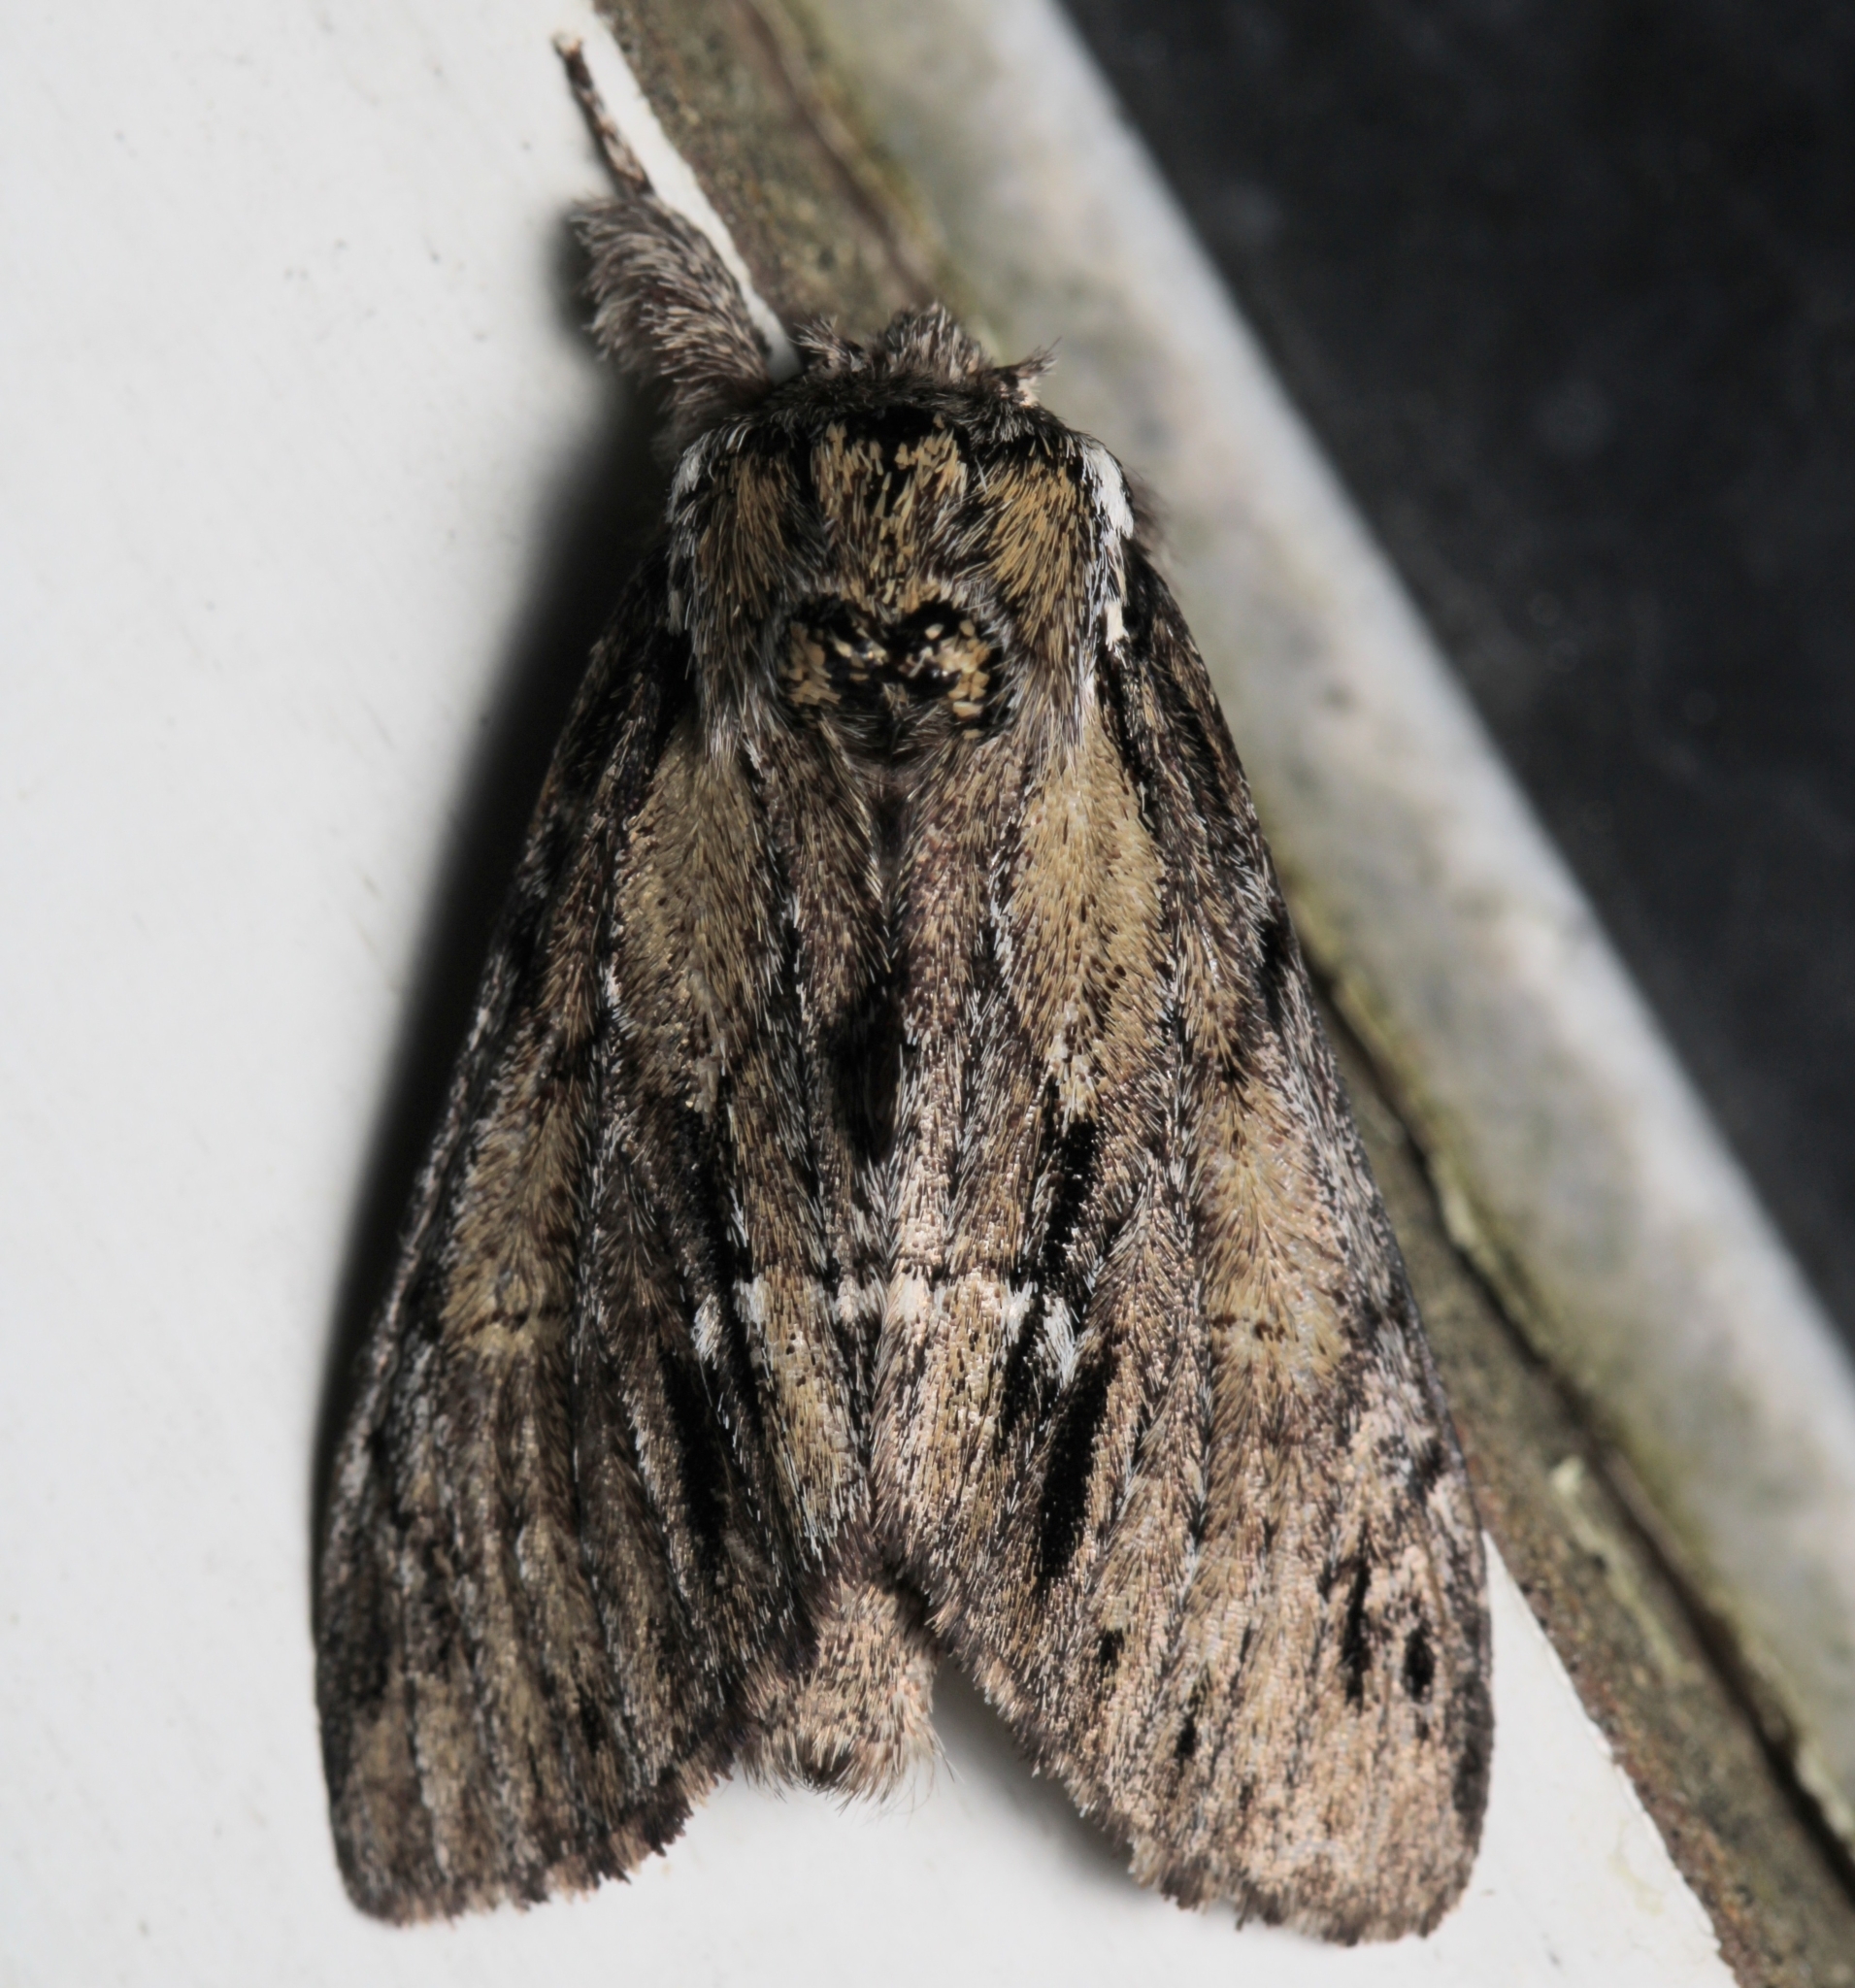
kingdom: Animalia
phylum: Arthropoda
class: Insecta
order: Lepidoptera
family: Notodontidae
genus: Paraeschra
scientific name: Paraeschra georgica
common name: Georgian prominent
